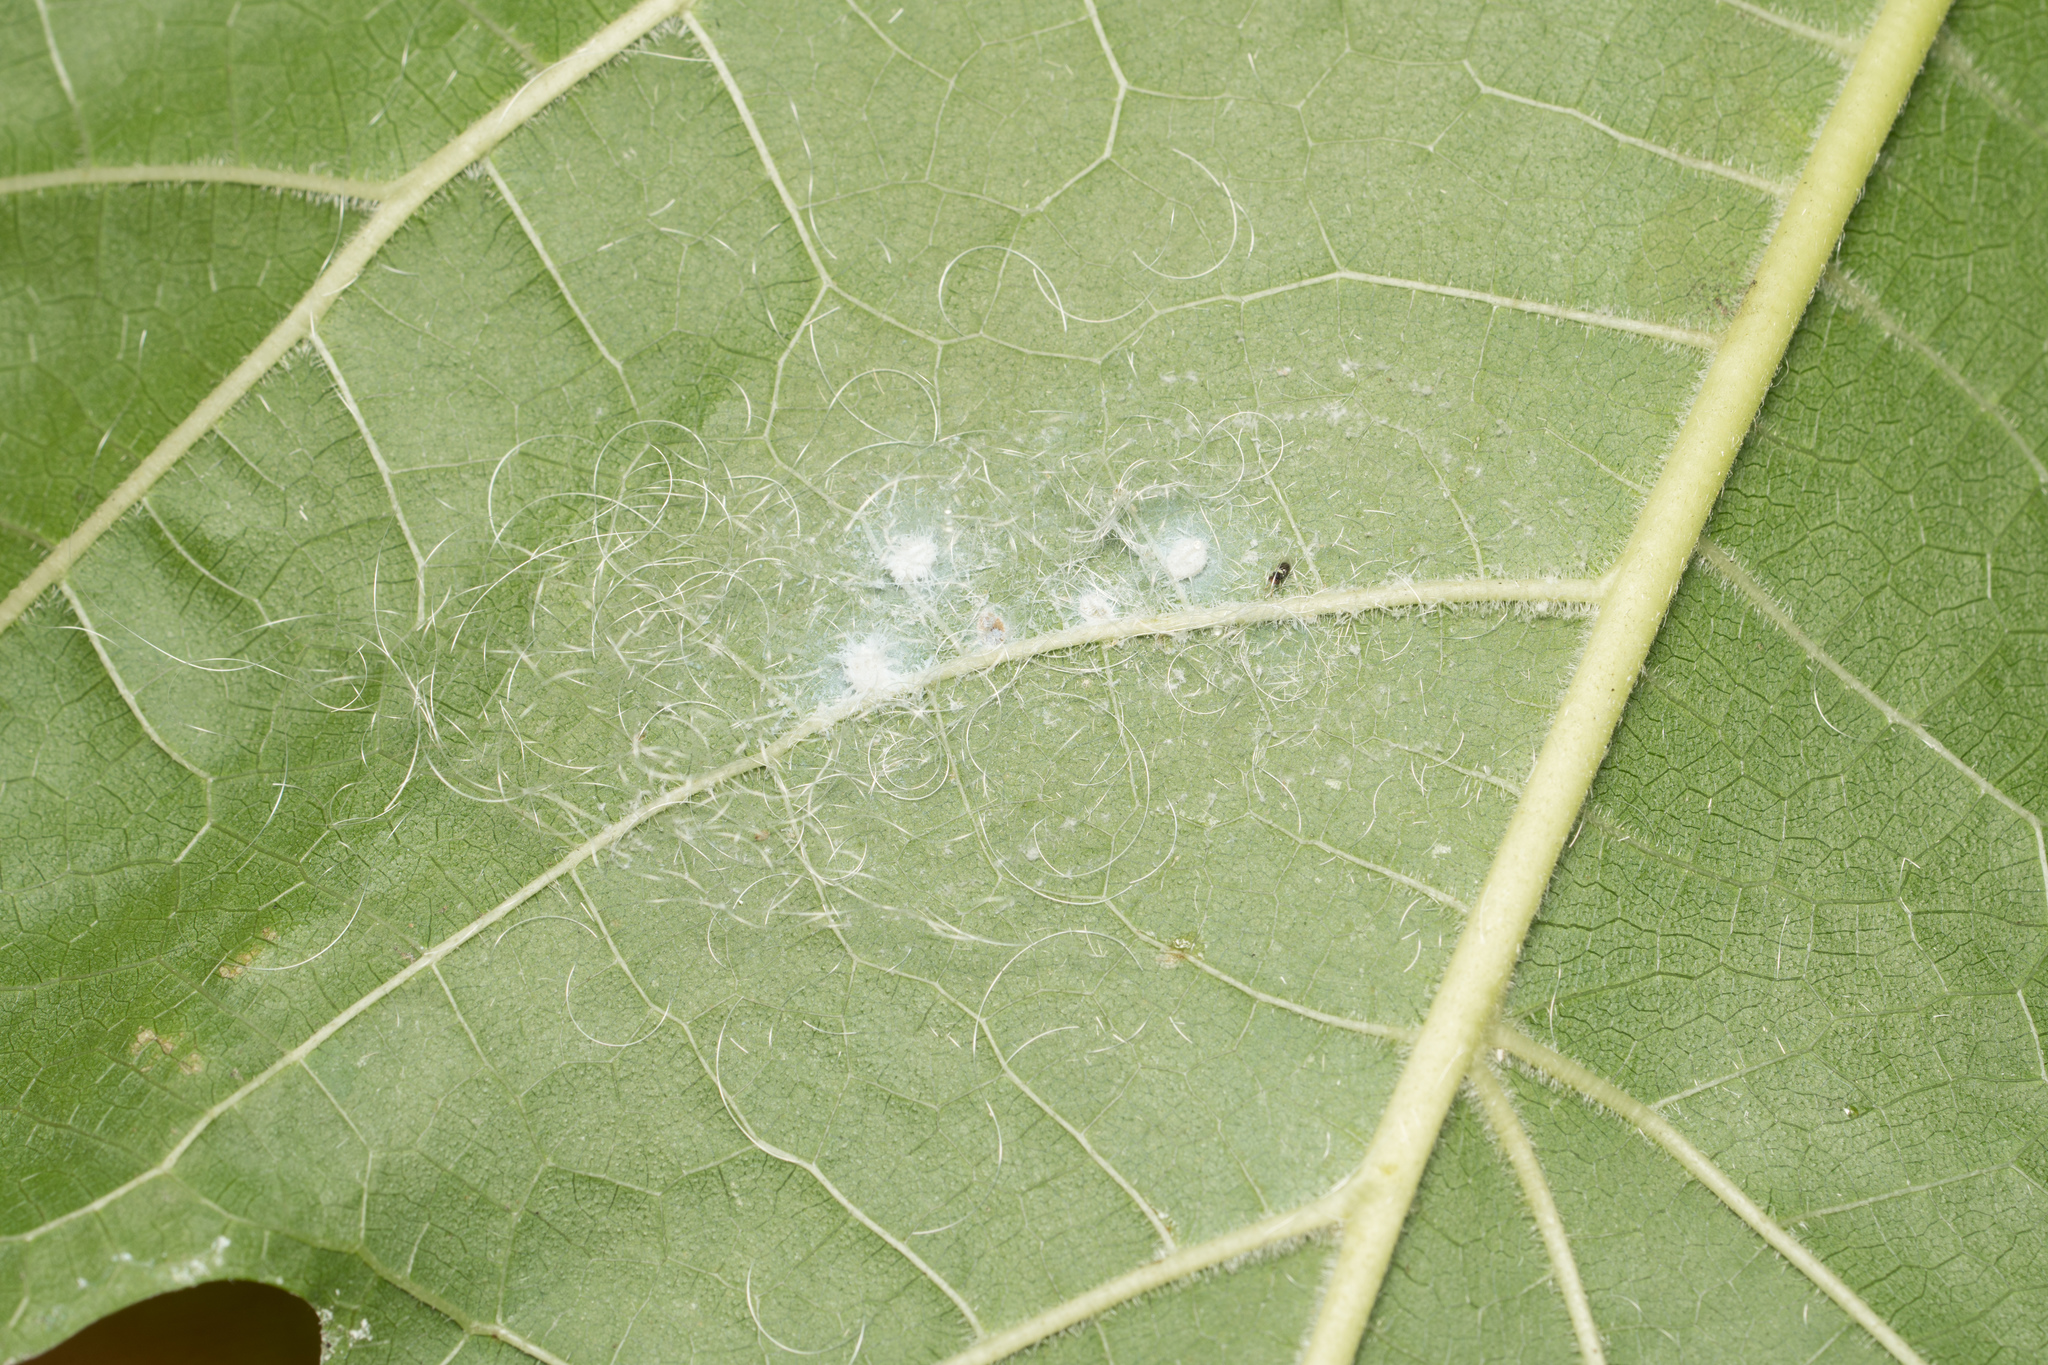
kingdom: Animalia
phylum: Arthropoda
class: Insecta
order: Hemiptera
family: Aleyrodidae
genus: Aleurodicus
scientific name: Aleurodicus dugesii
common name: Giant whitefly
